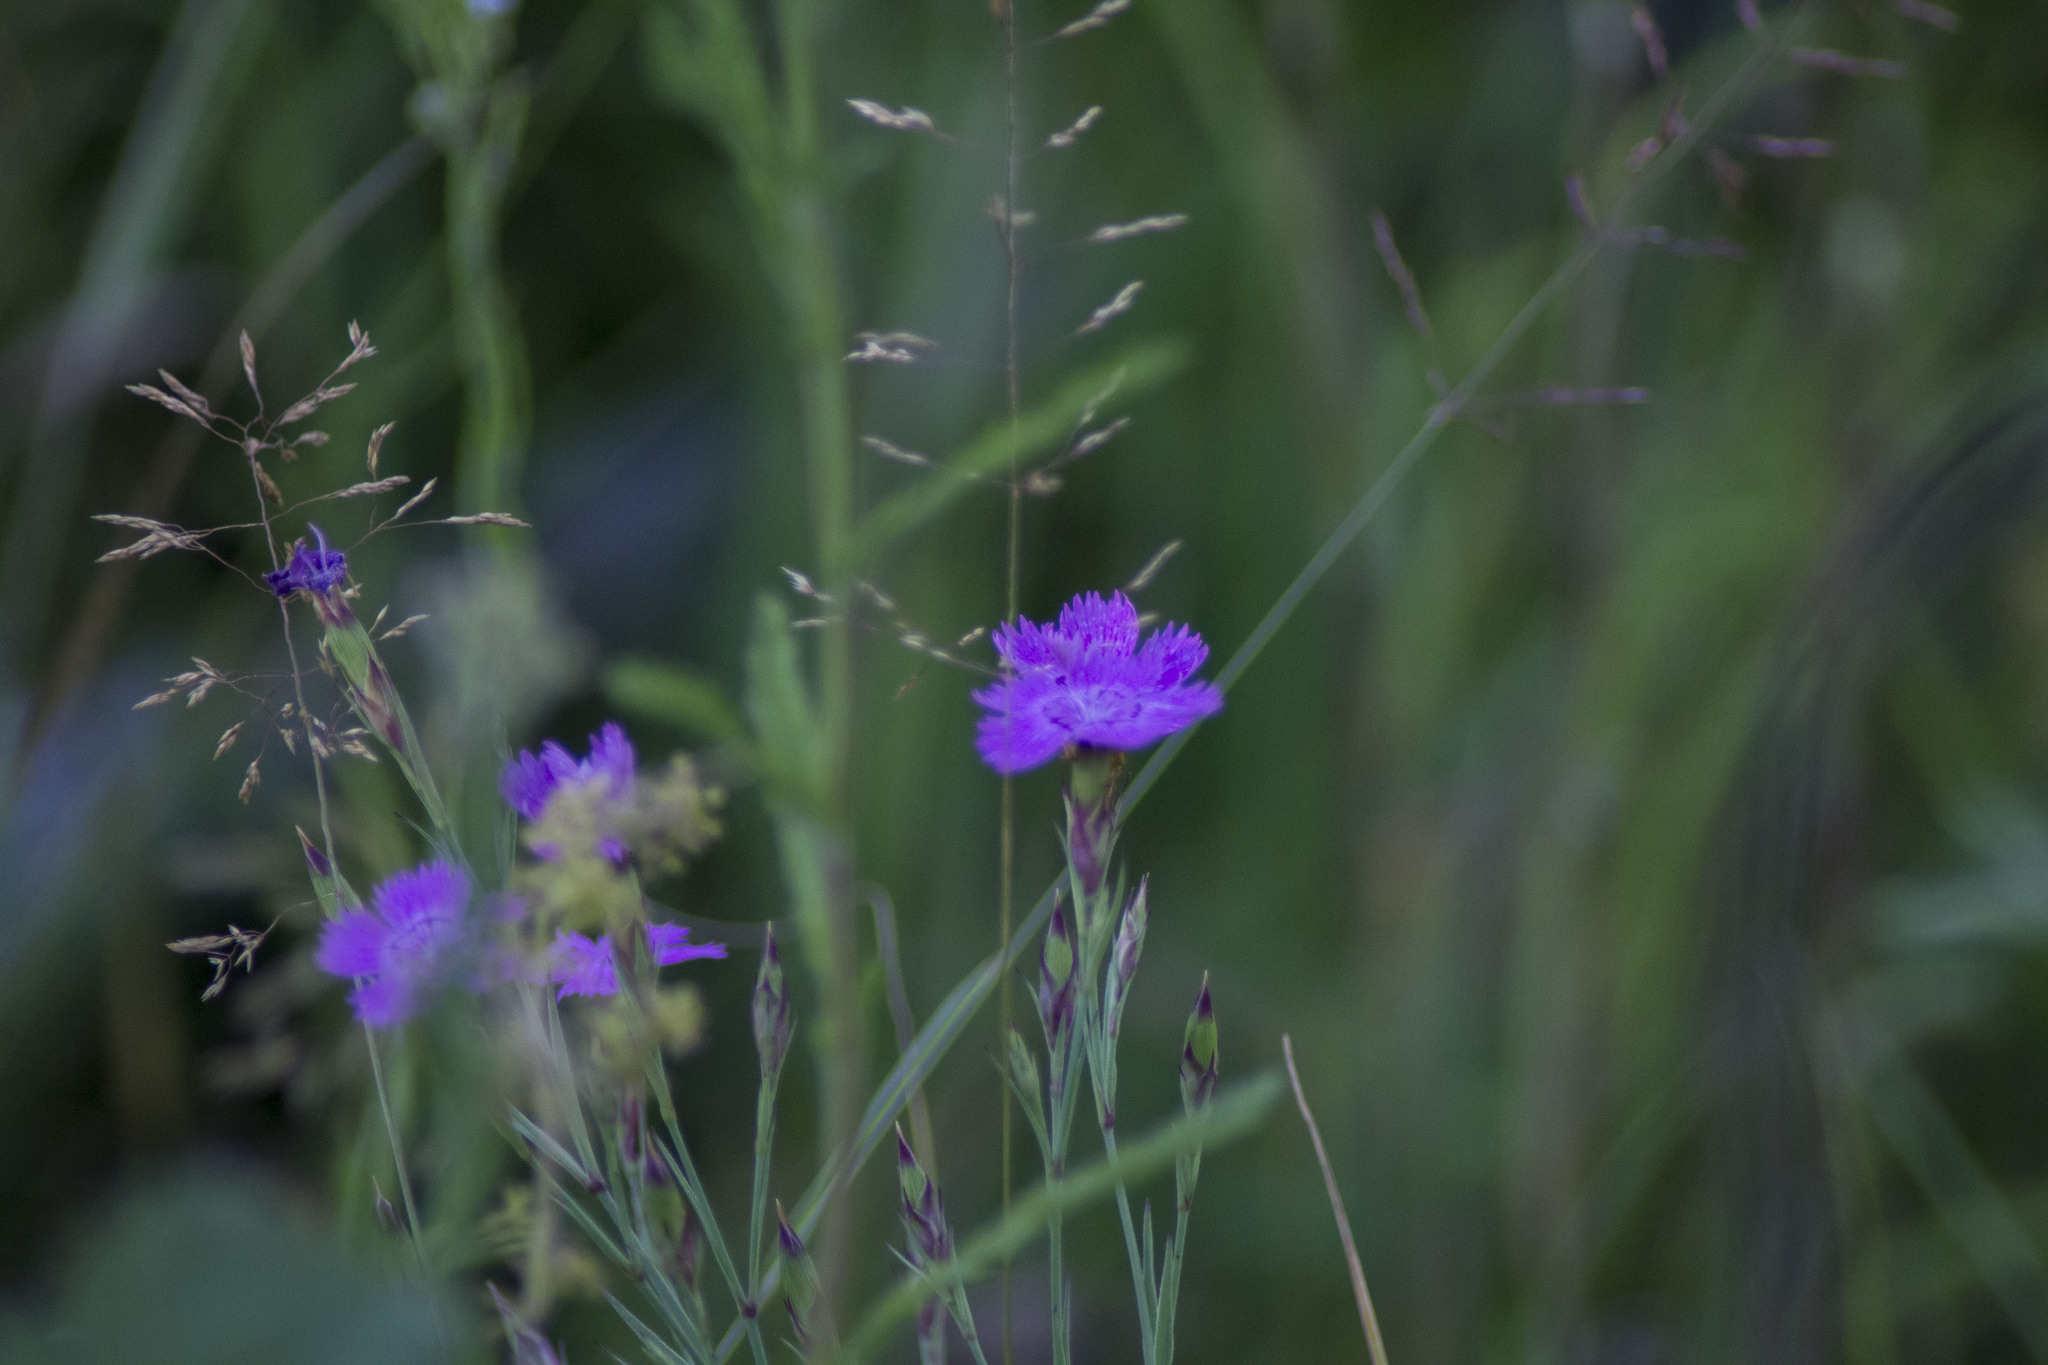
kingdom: Plantae
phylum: Tracheophyta
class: Magnoliopsida
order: Caryophyllales
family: Caryophyllaceae
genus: Dianthus
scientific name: Dianthus chinensis
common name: Rainbow pink
